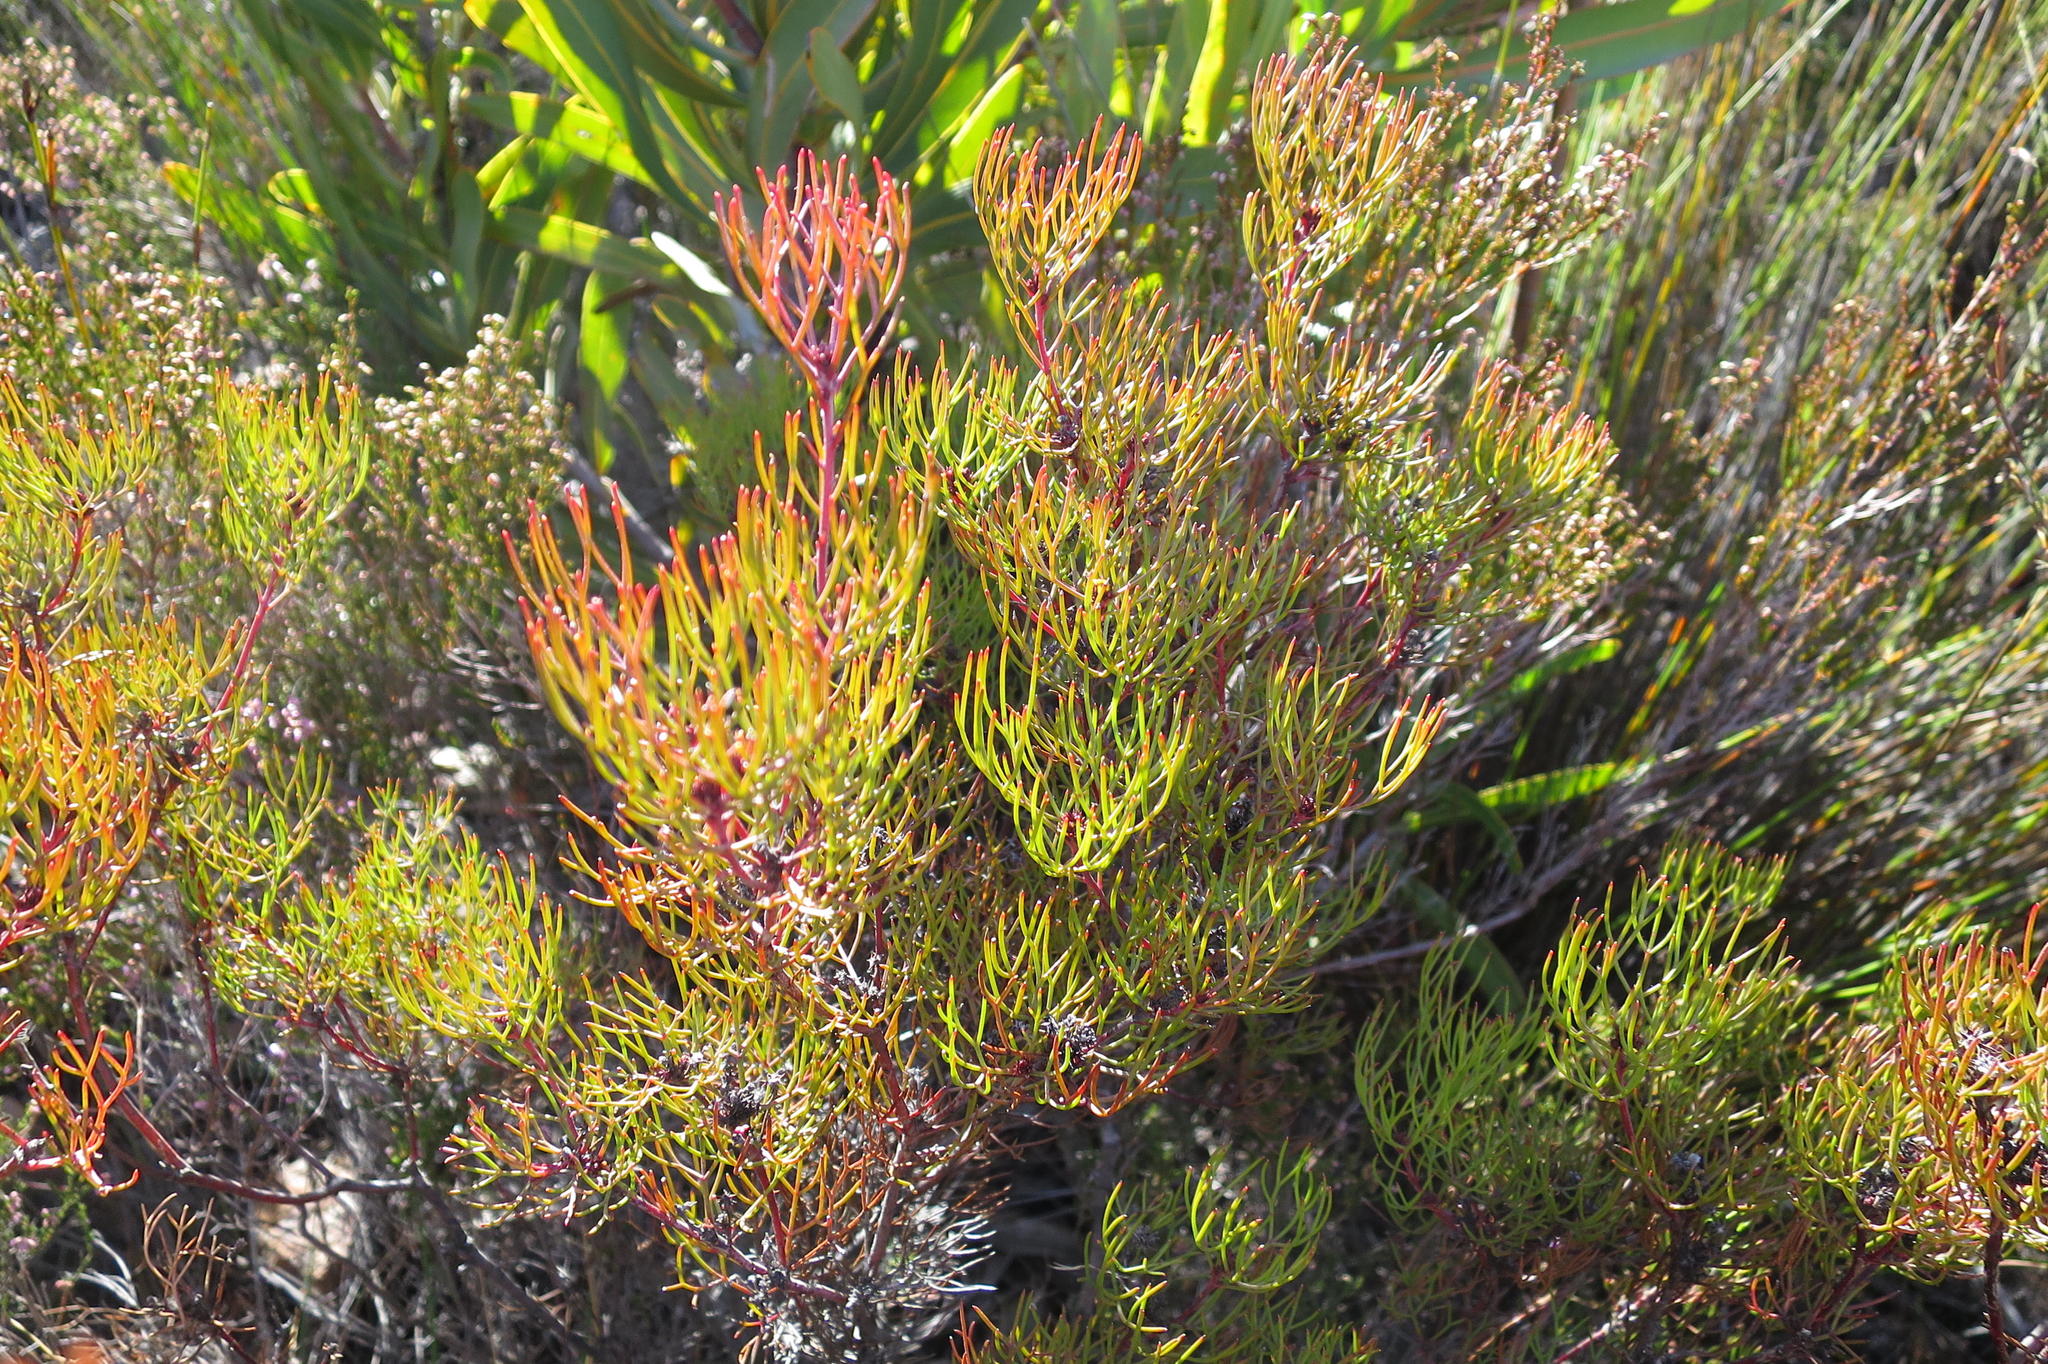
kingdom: Plantae
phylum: Tracheophyta
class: Magnoliopsida
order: Proteales
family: Proteaceae
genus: Serruria
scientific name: Serruria fasciflora
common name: Common pin spiderhead
